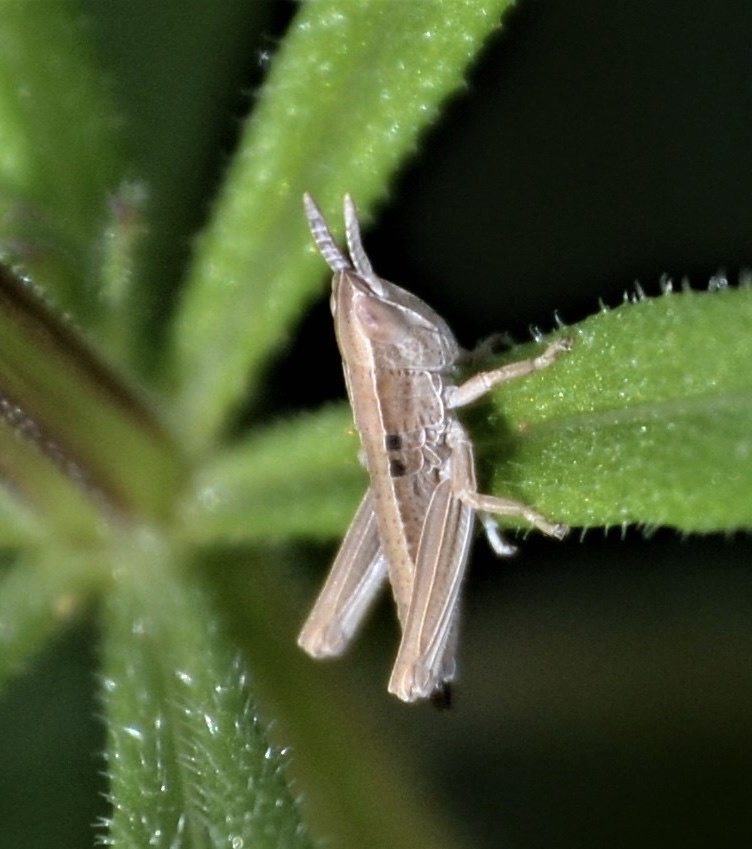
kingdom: Animalia
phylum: Arthropoda
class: Insecta
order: Orthoptera
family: Acrididae
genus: Euthystira
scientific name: Euthystira brachyptera
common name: Small gold grasshopper
